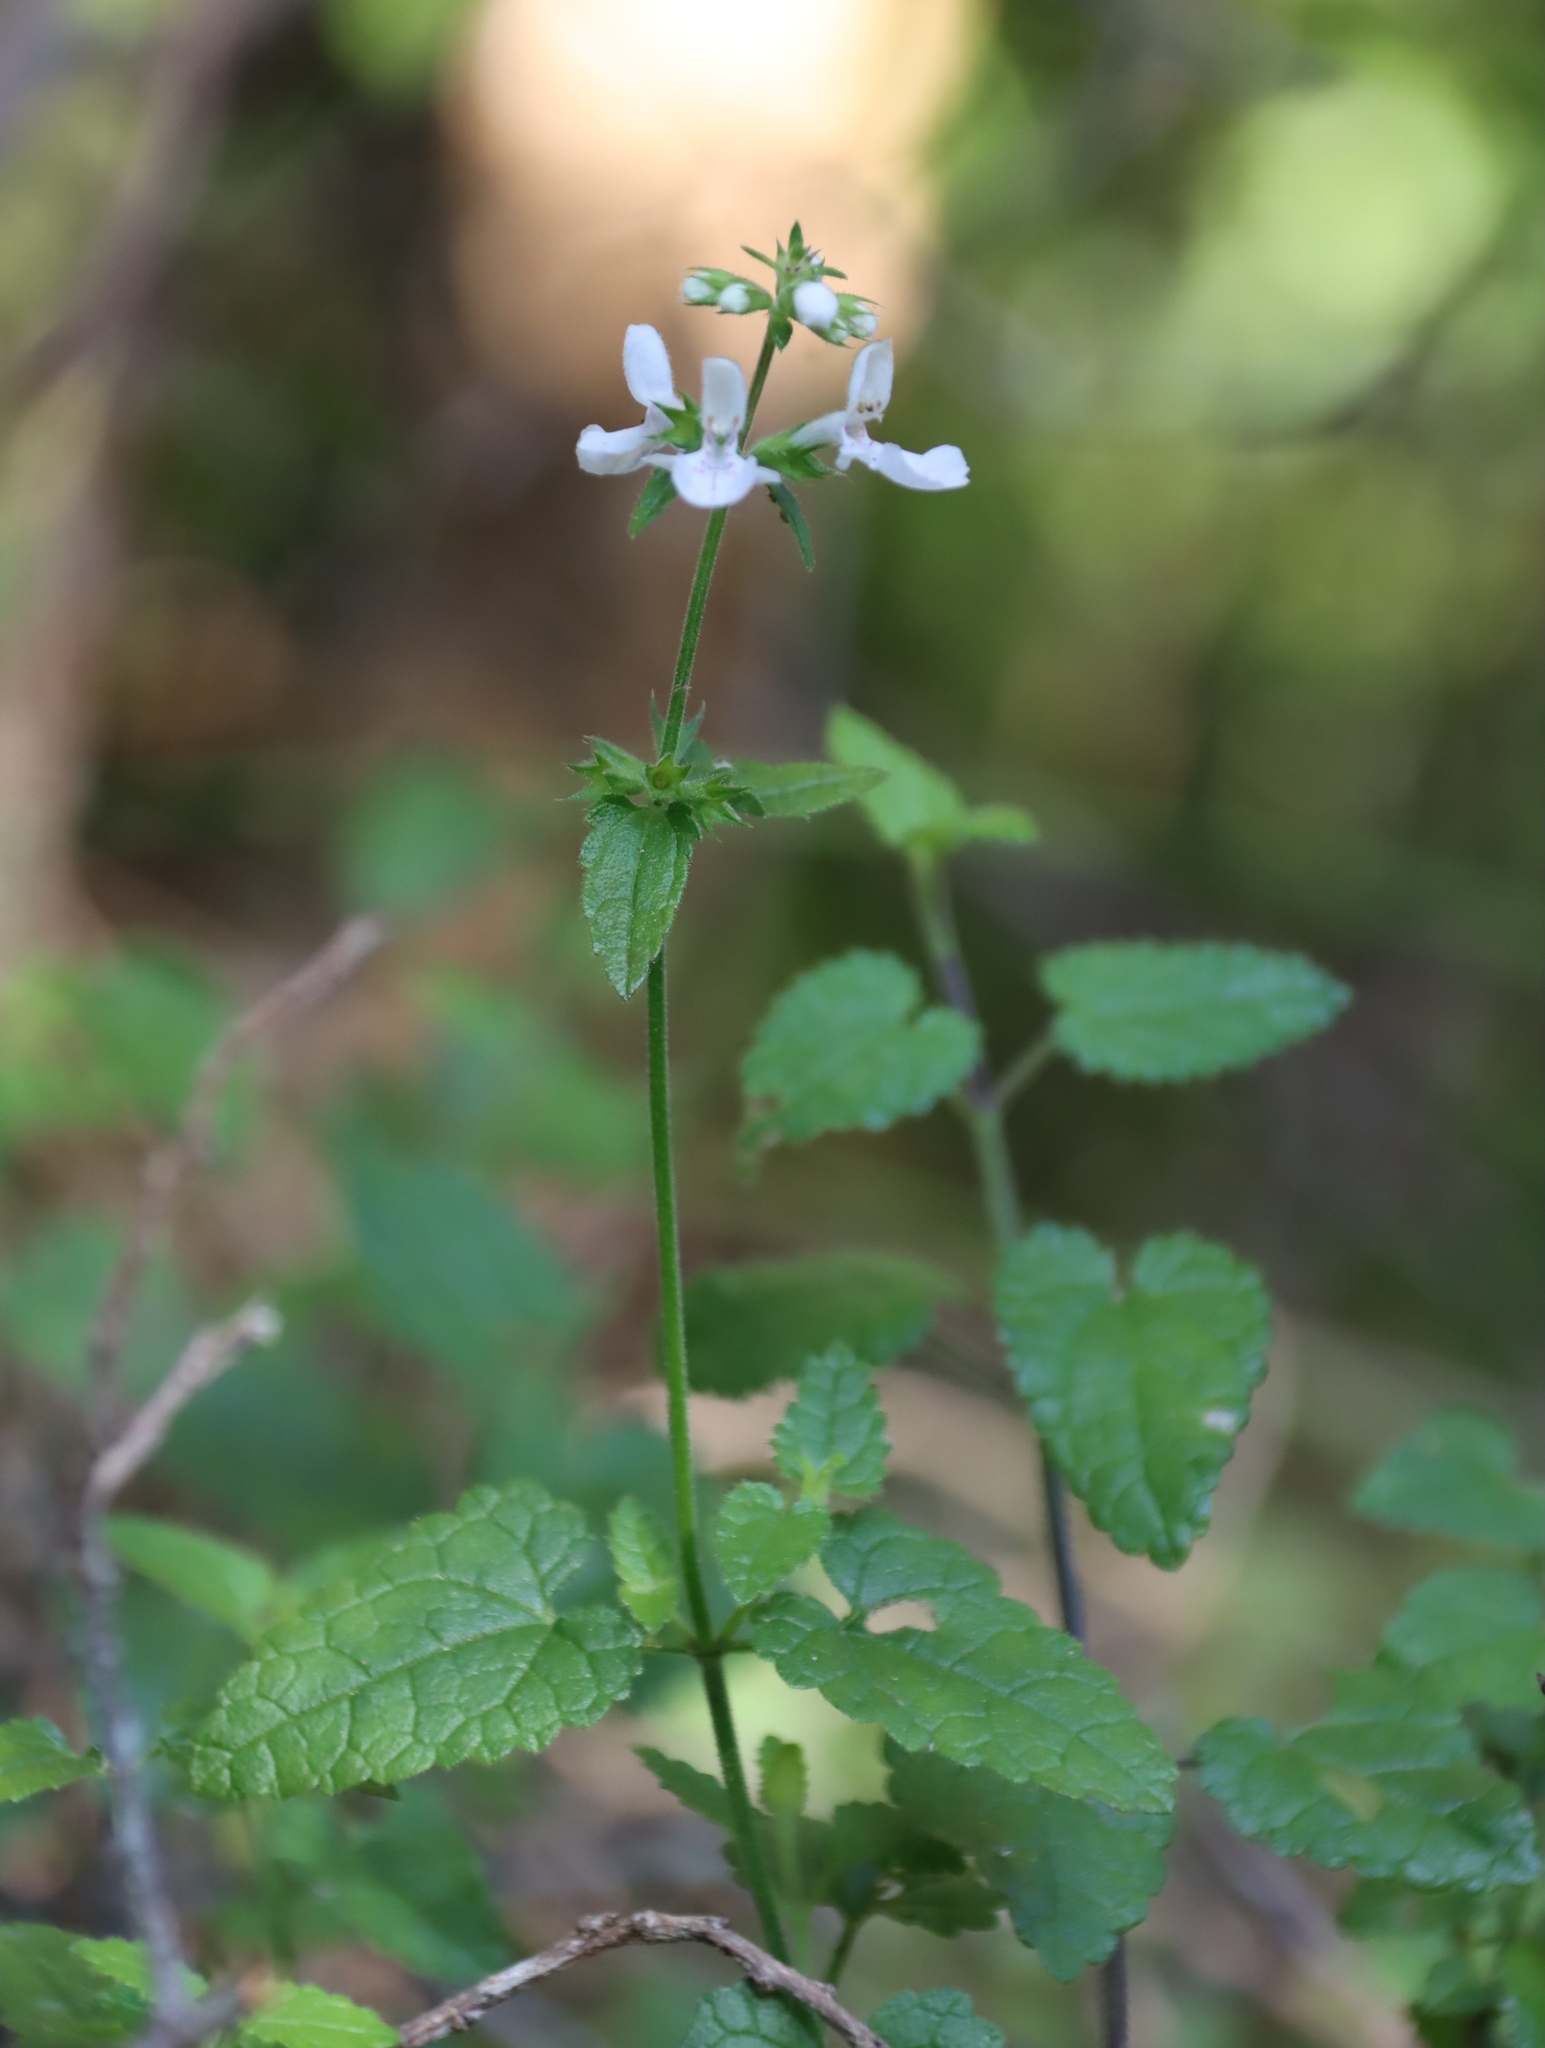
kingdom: Plantae
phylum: Tracheophyta
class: Magnoliopsida
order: Lamiales
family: Lamiaceae
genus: Stachys
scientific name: Stachys aethiopica
